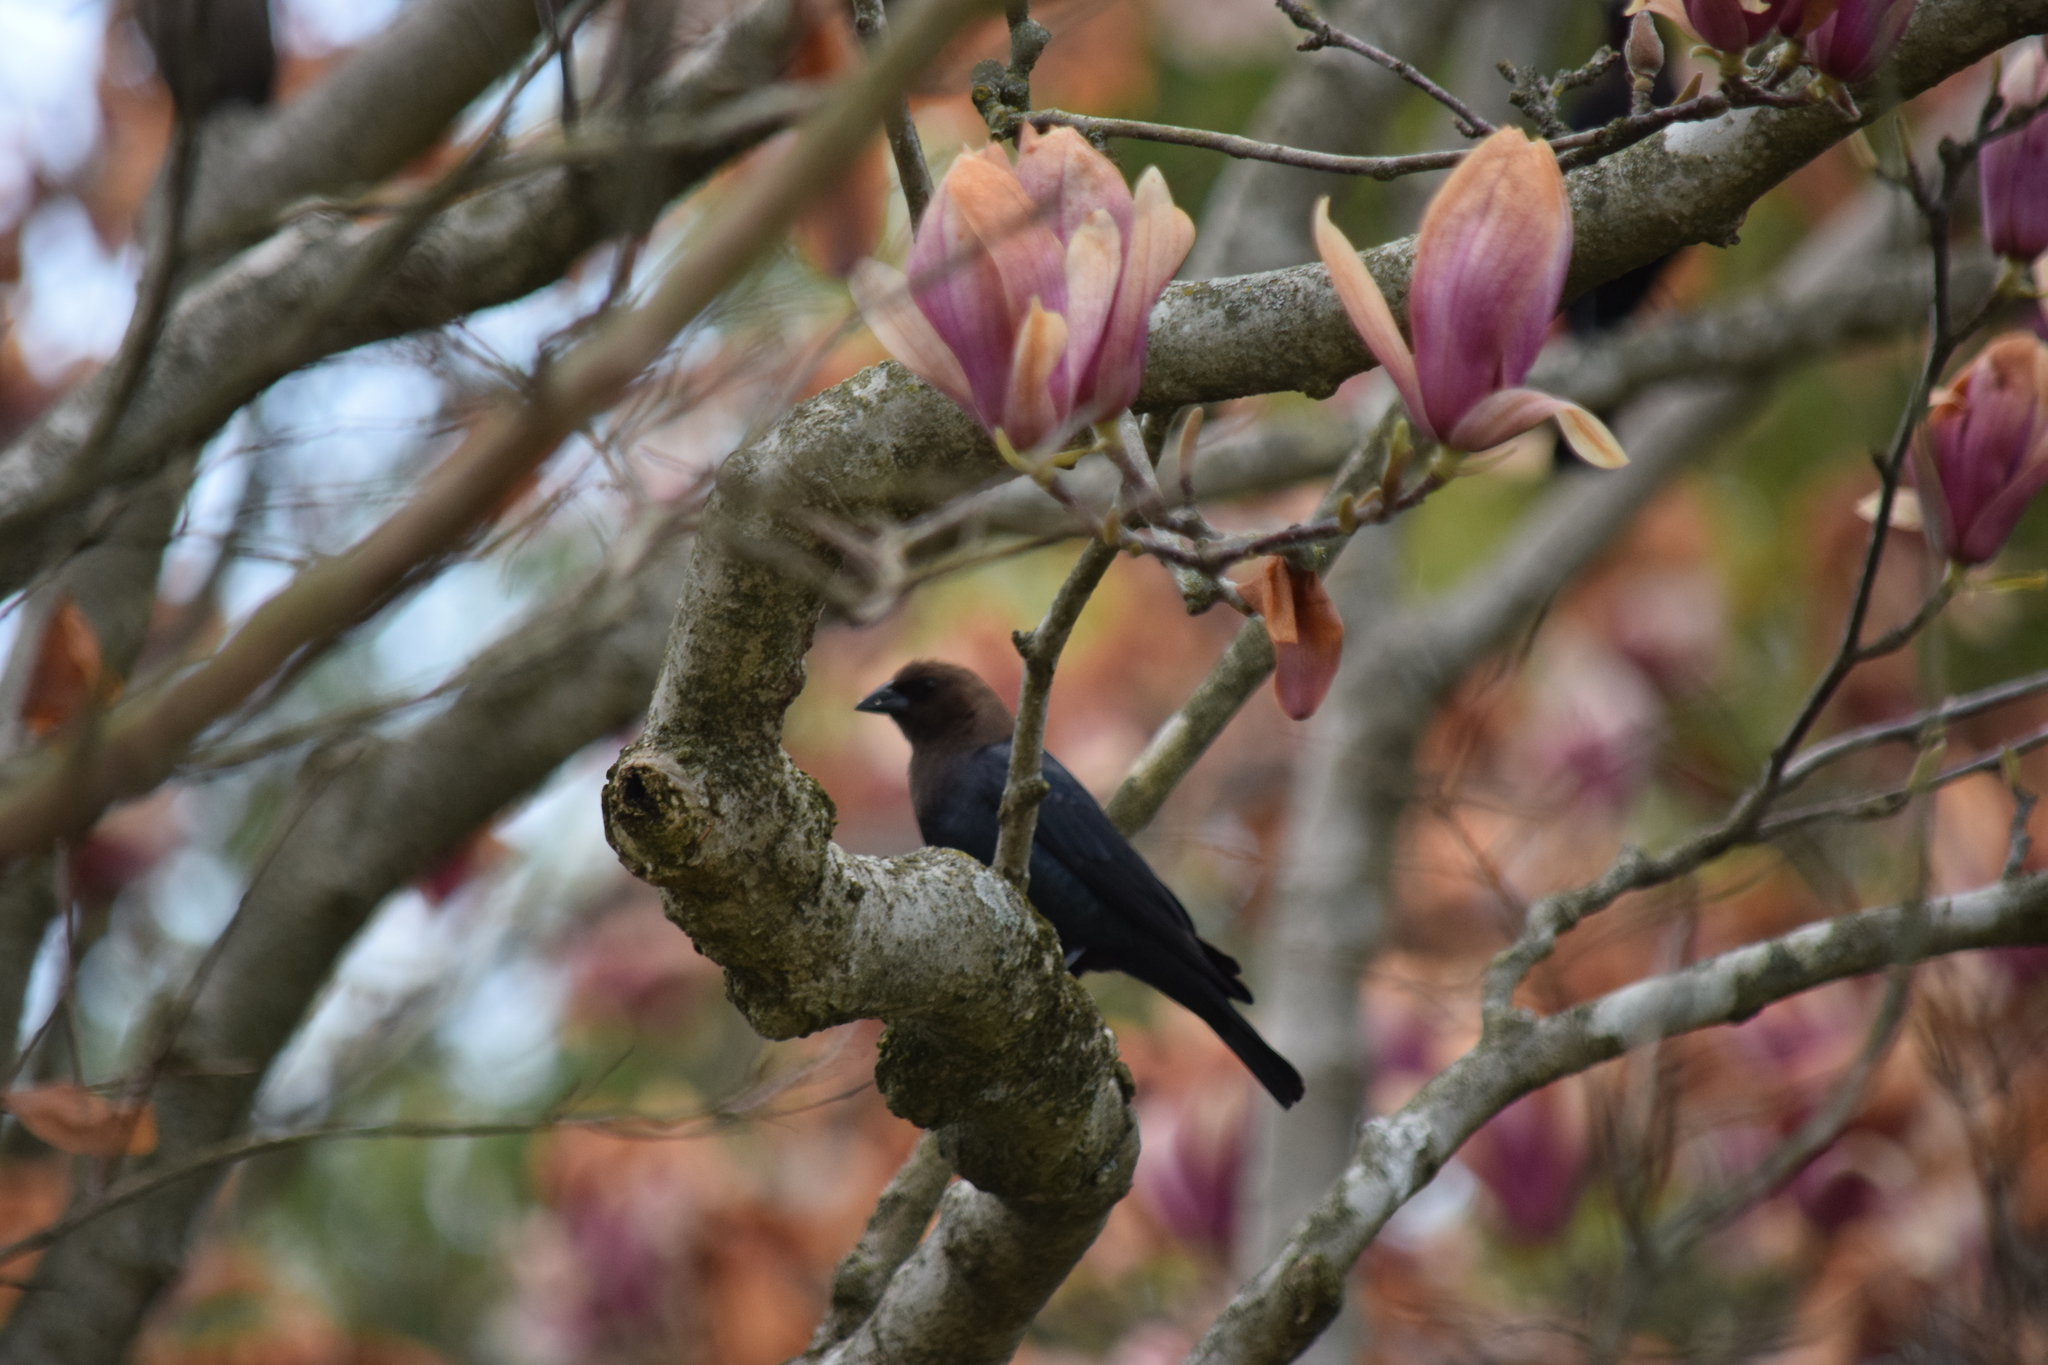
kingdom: Animalia
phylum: Chordata
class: Aves
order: Passeriformes
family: Icteridae
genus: Molothrus
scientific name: Molothrus ater
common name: Brown-headed cowbird
